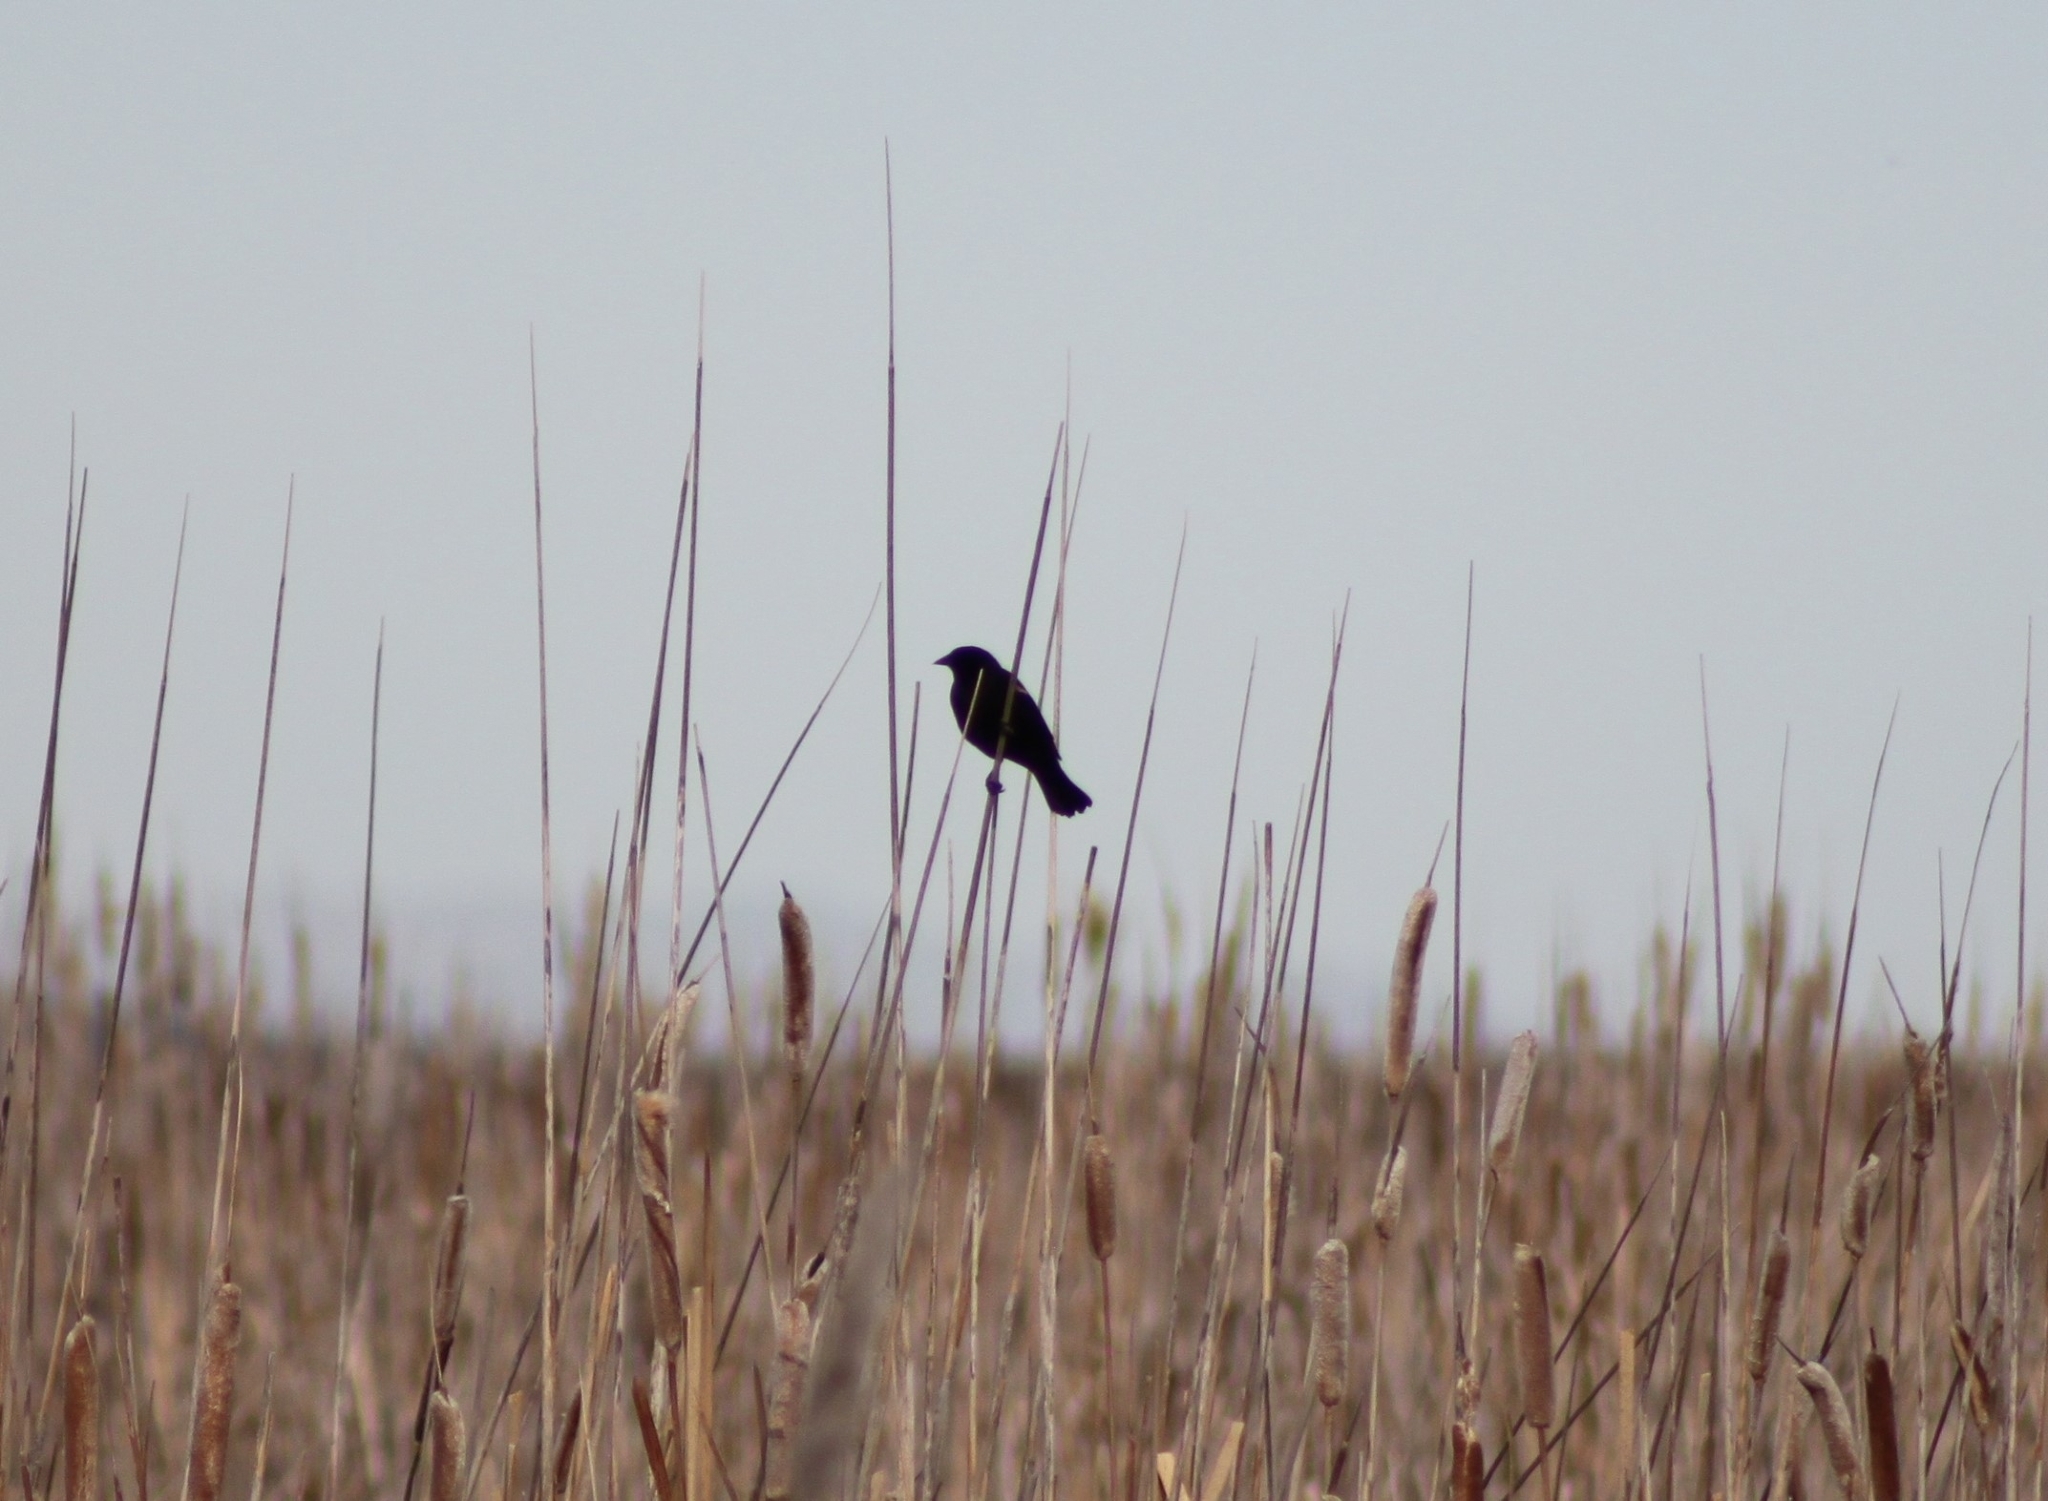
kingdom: Animalia
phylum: Chordata
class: Aves
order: Passeriformes
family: Icteridae
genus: Agelaius
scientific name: Agelaius phoeniceus
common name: Red-winged blackbird
